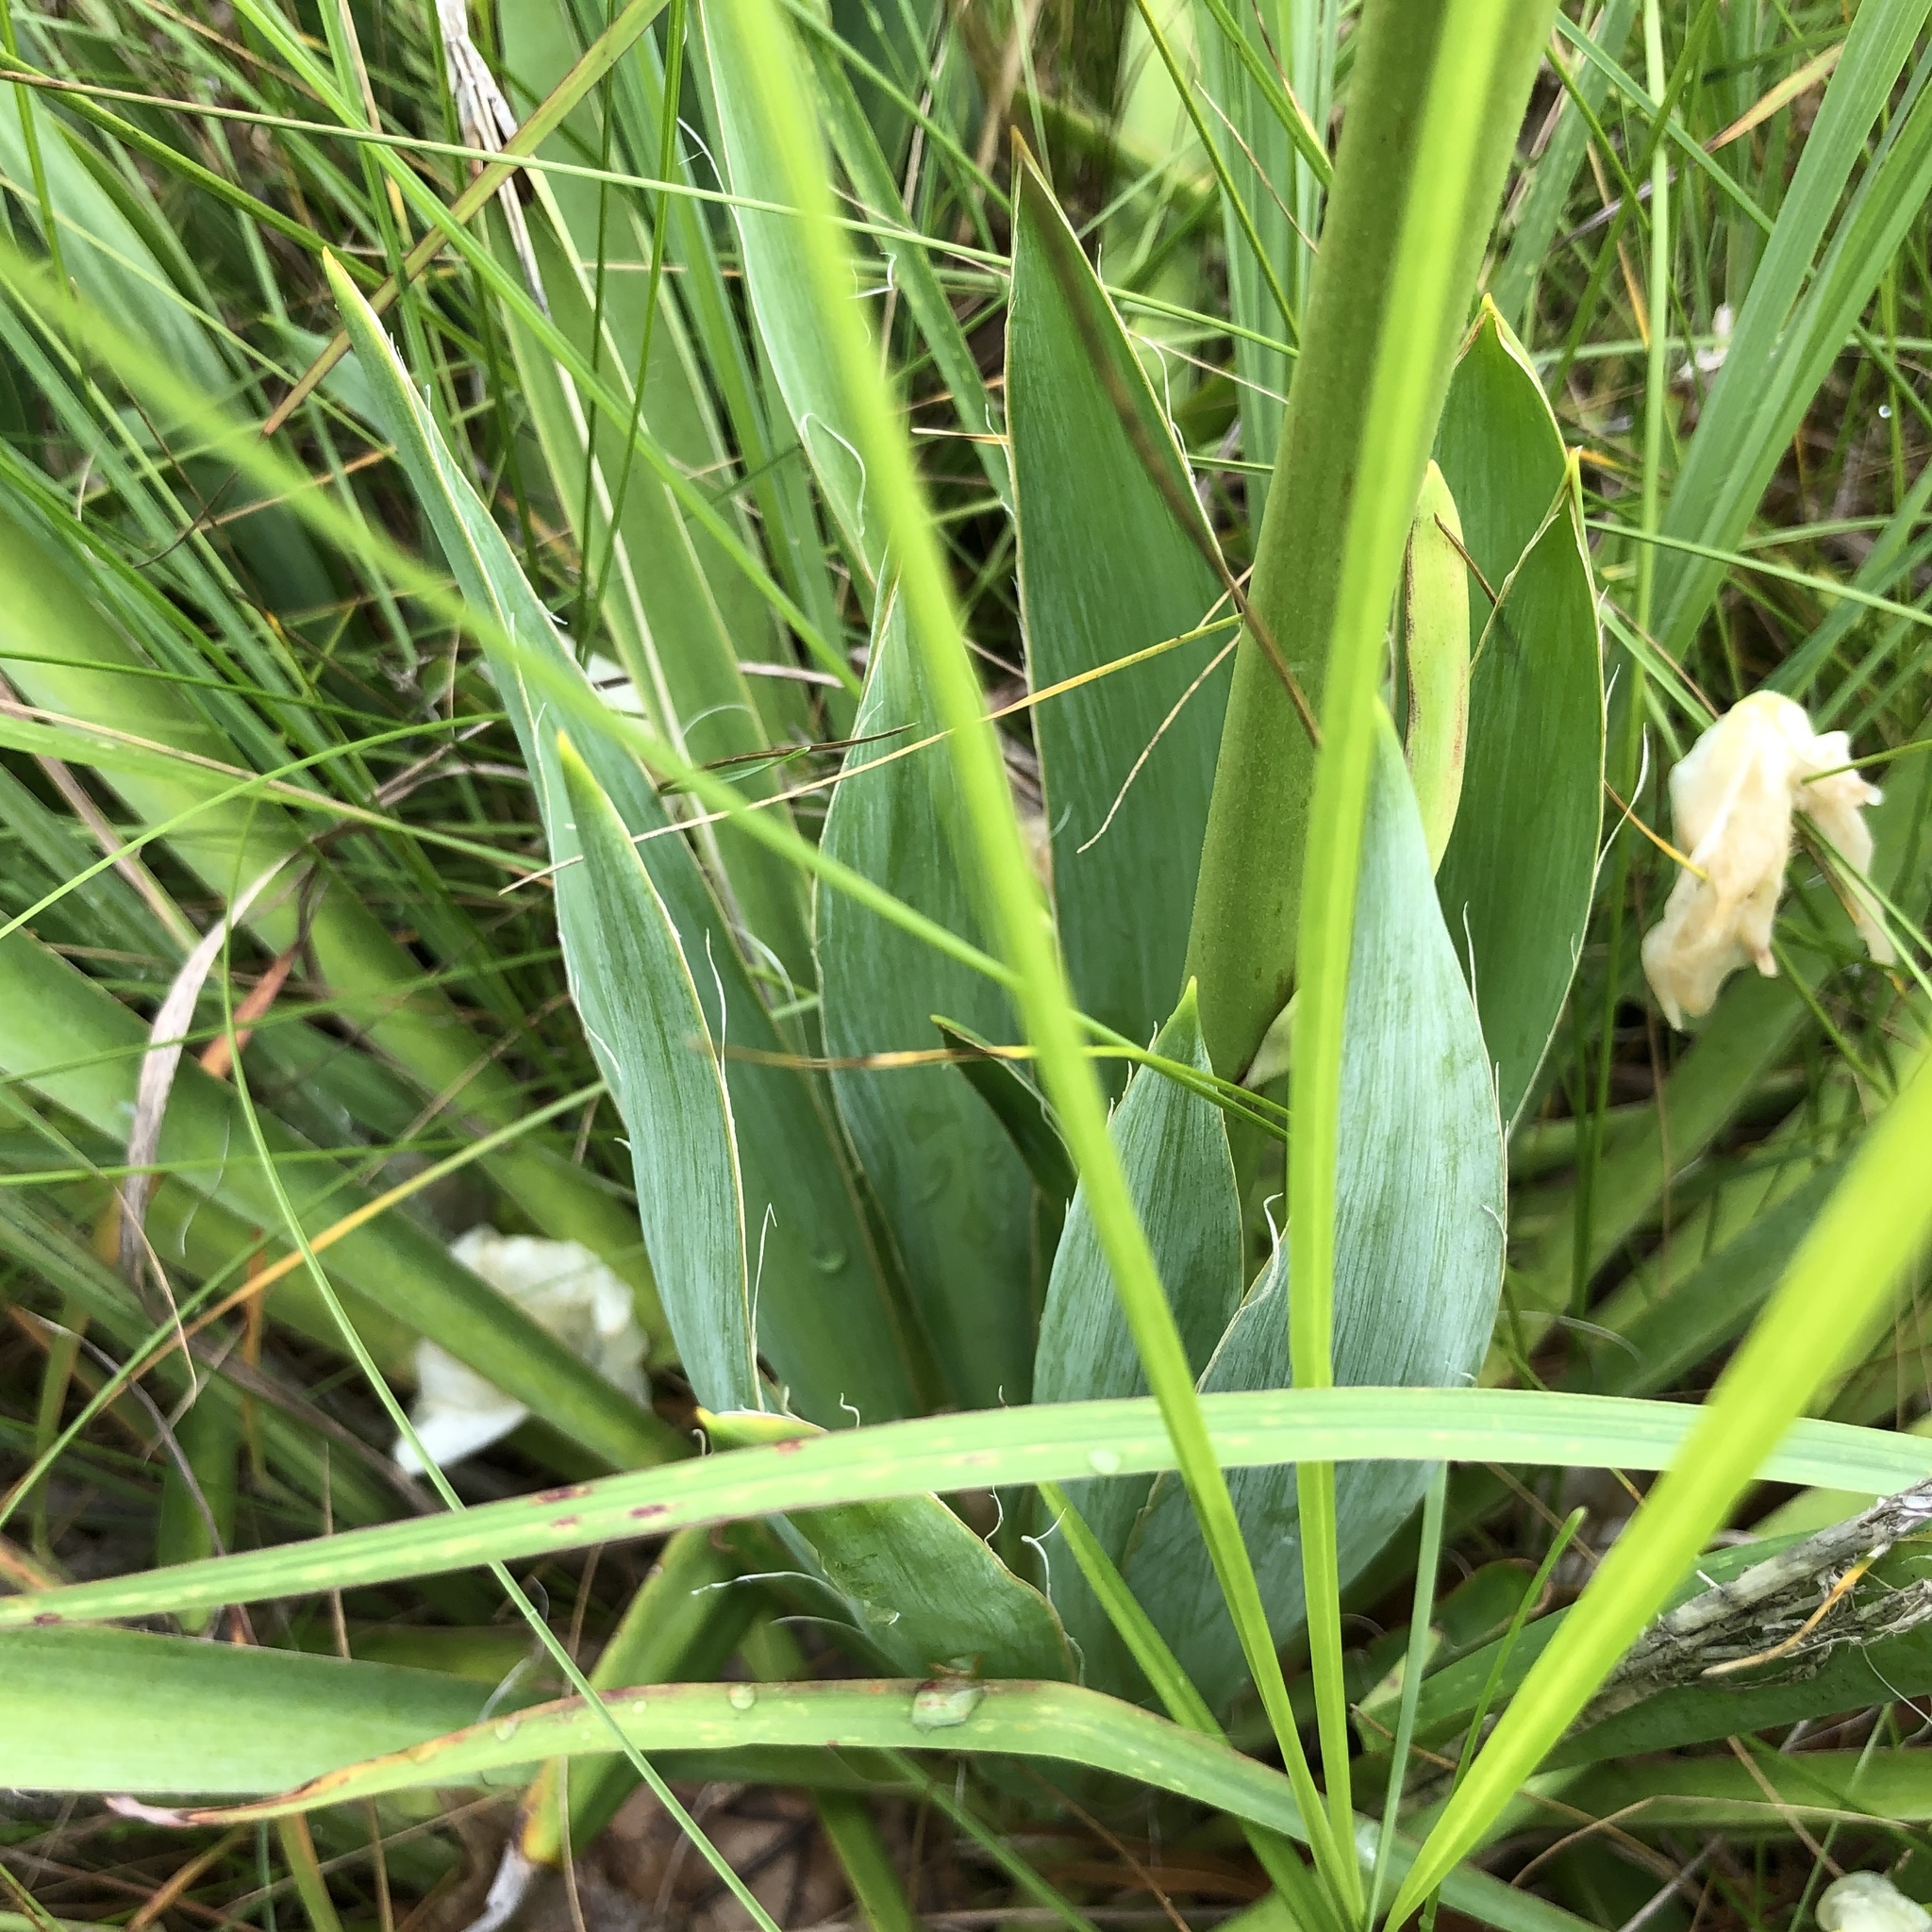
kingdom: Plantae
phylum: Tracheophyta
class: Liliopsida
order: Asparagales
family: Asparagaceae
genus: Yucca
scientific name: Yucca filamentosa
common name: Adam's-needle
